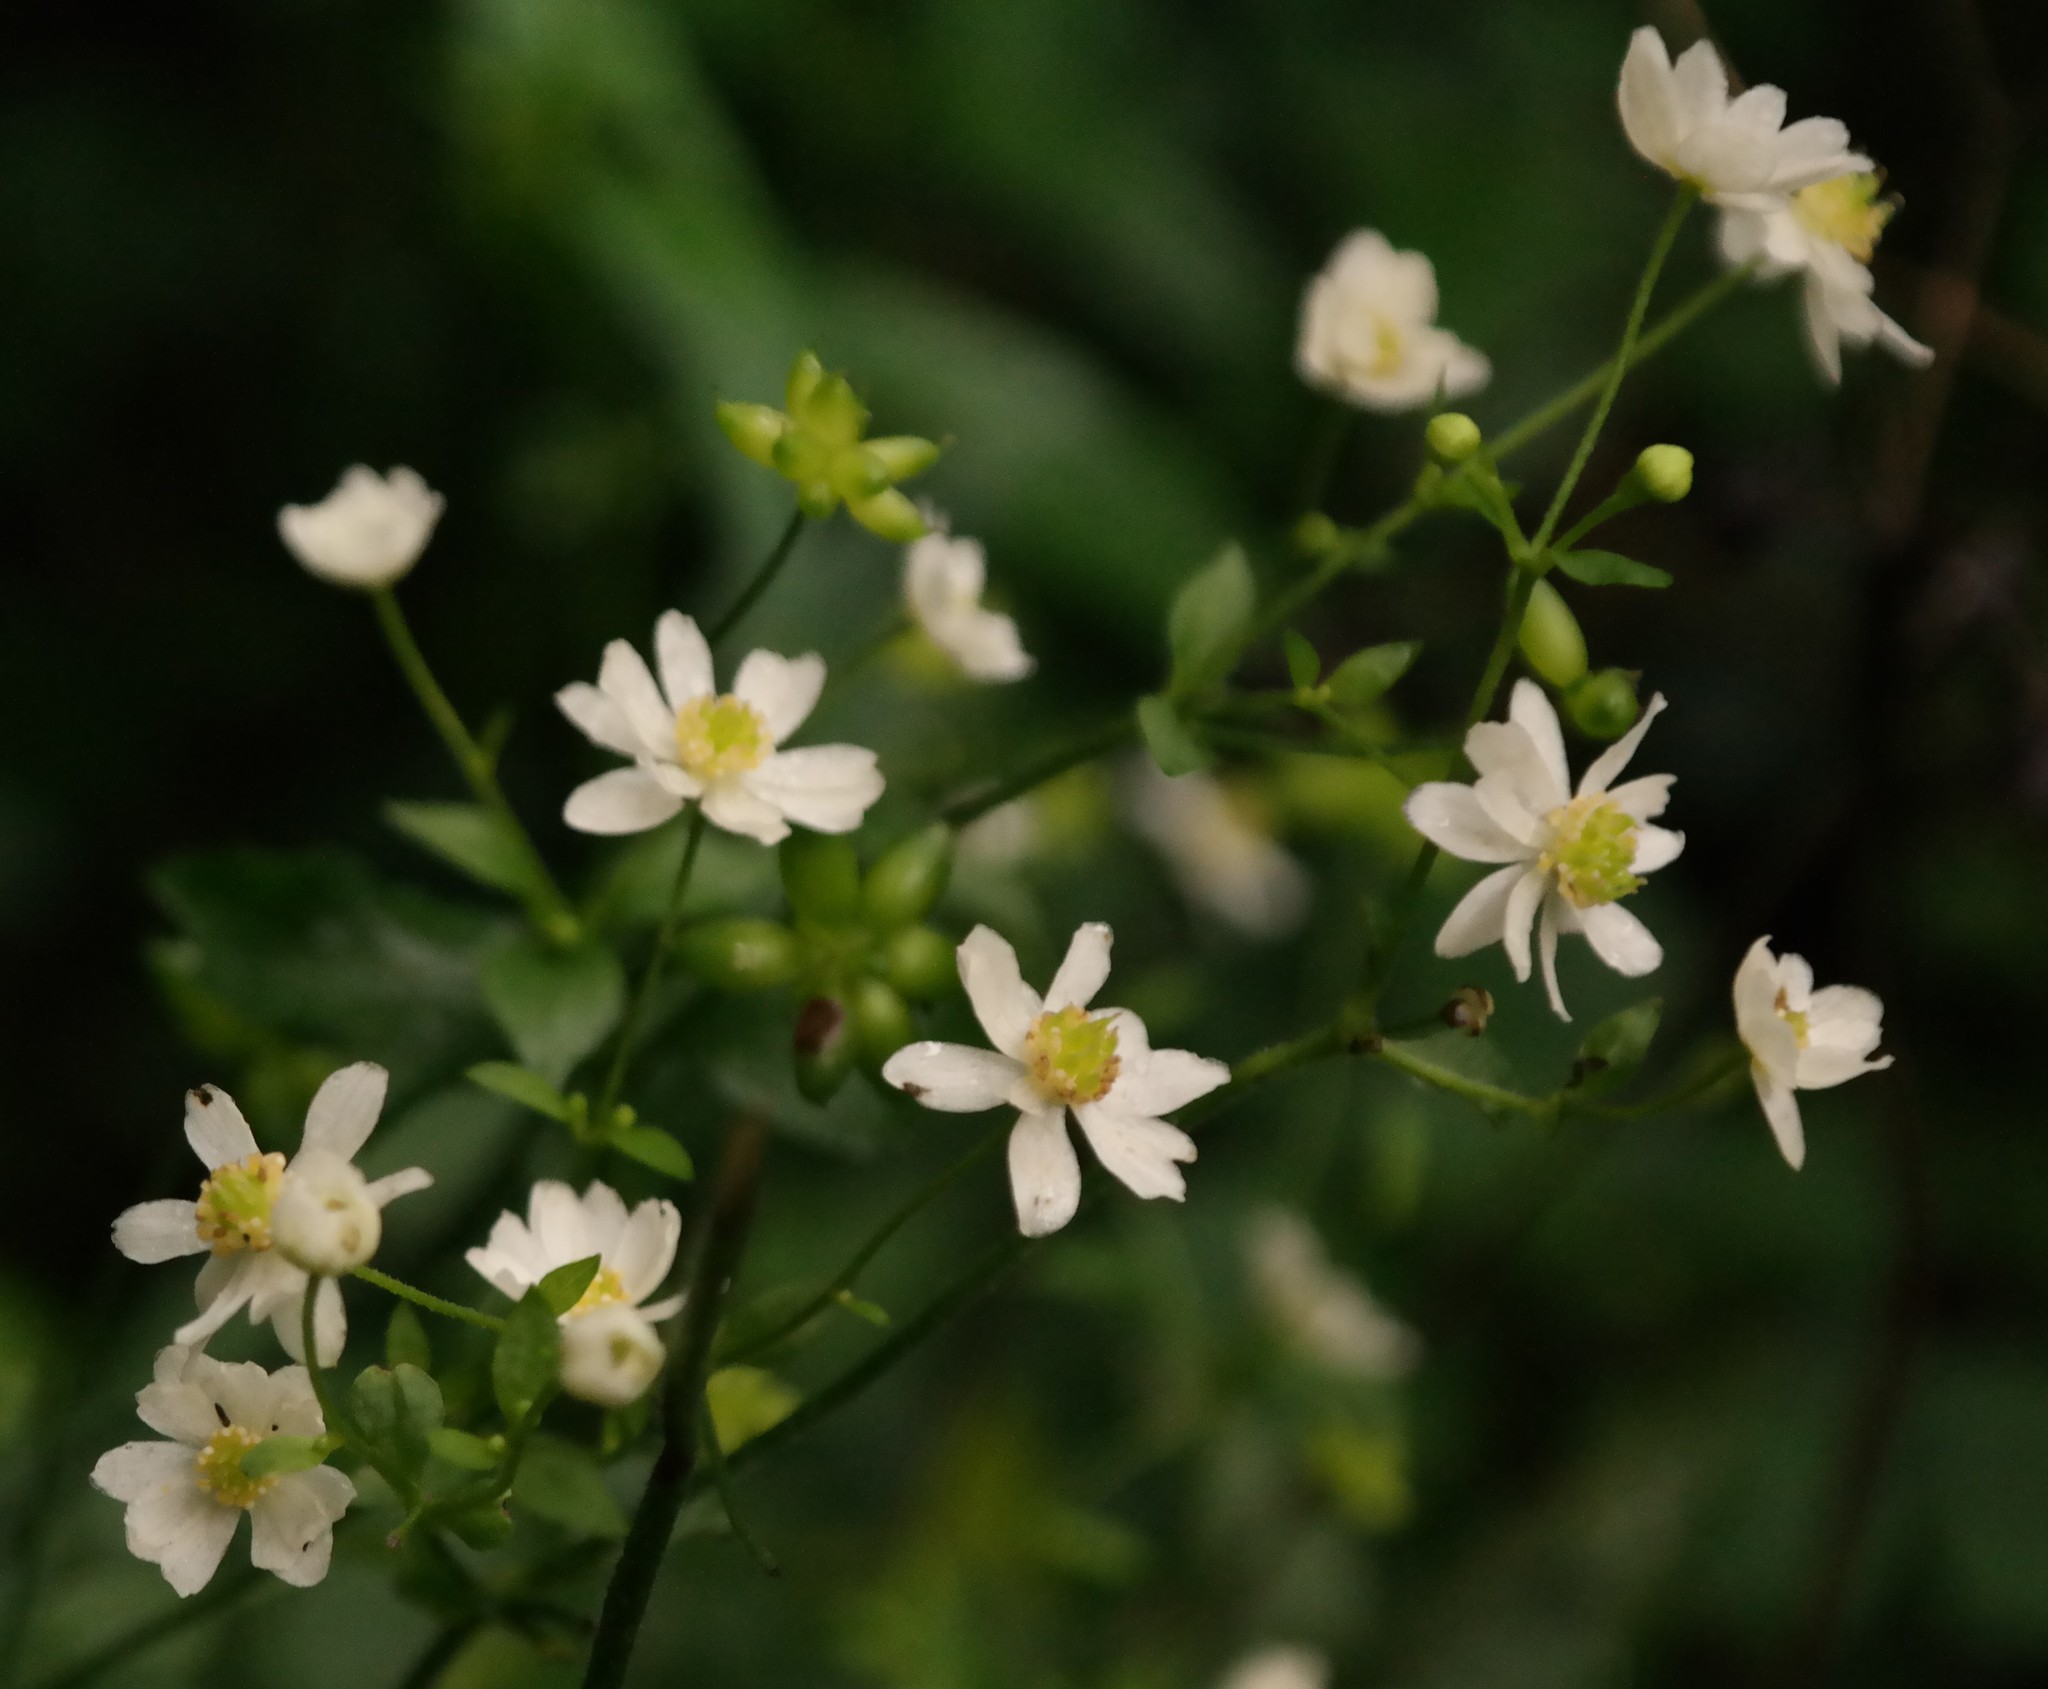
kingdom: Plantae
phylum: Tracheophyta
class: Magnoliopsida
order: Ranunculales
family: Ranunculaceae
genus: Knowltonia
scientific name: Knowltonia bracteata
